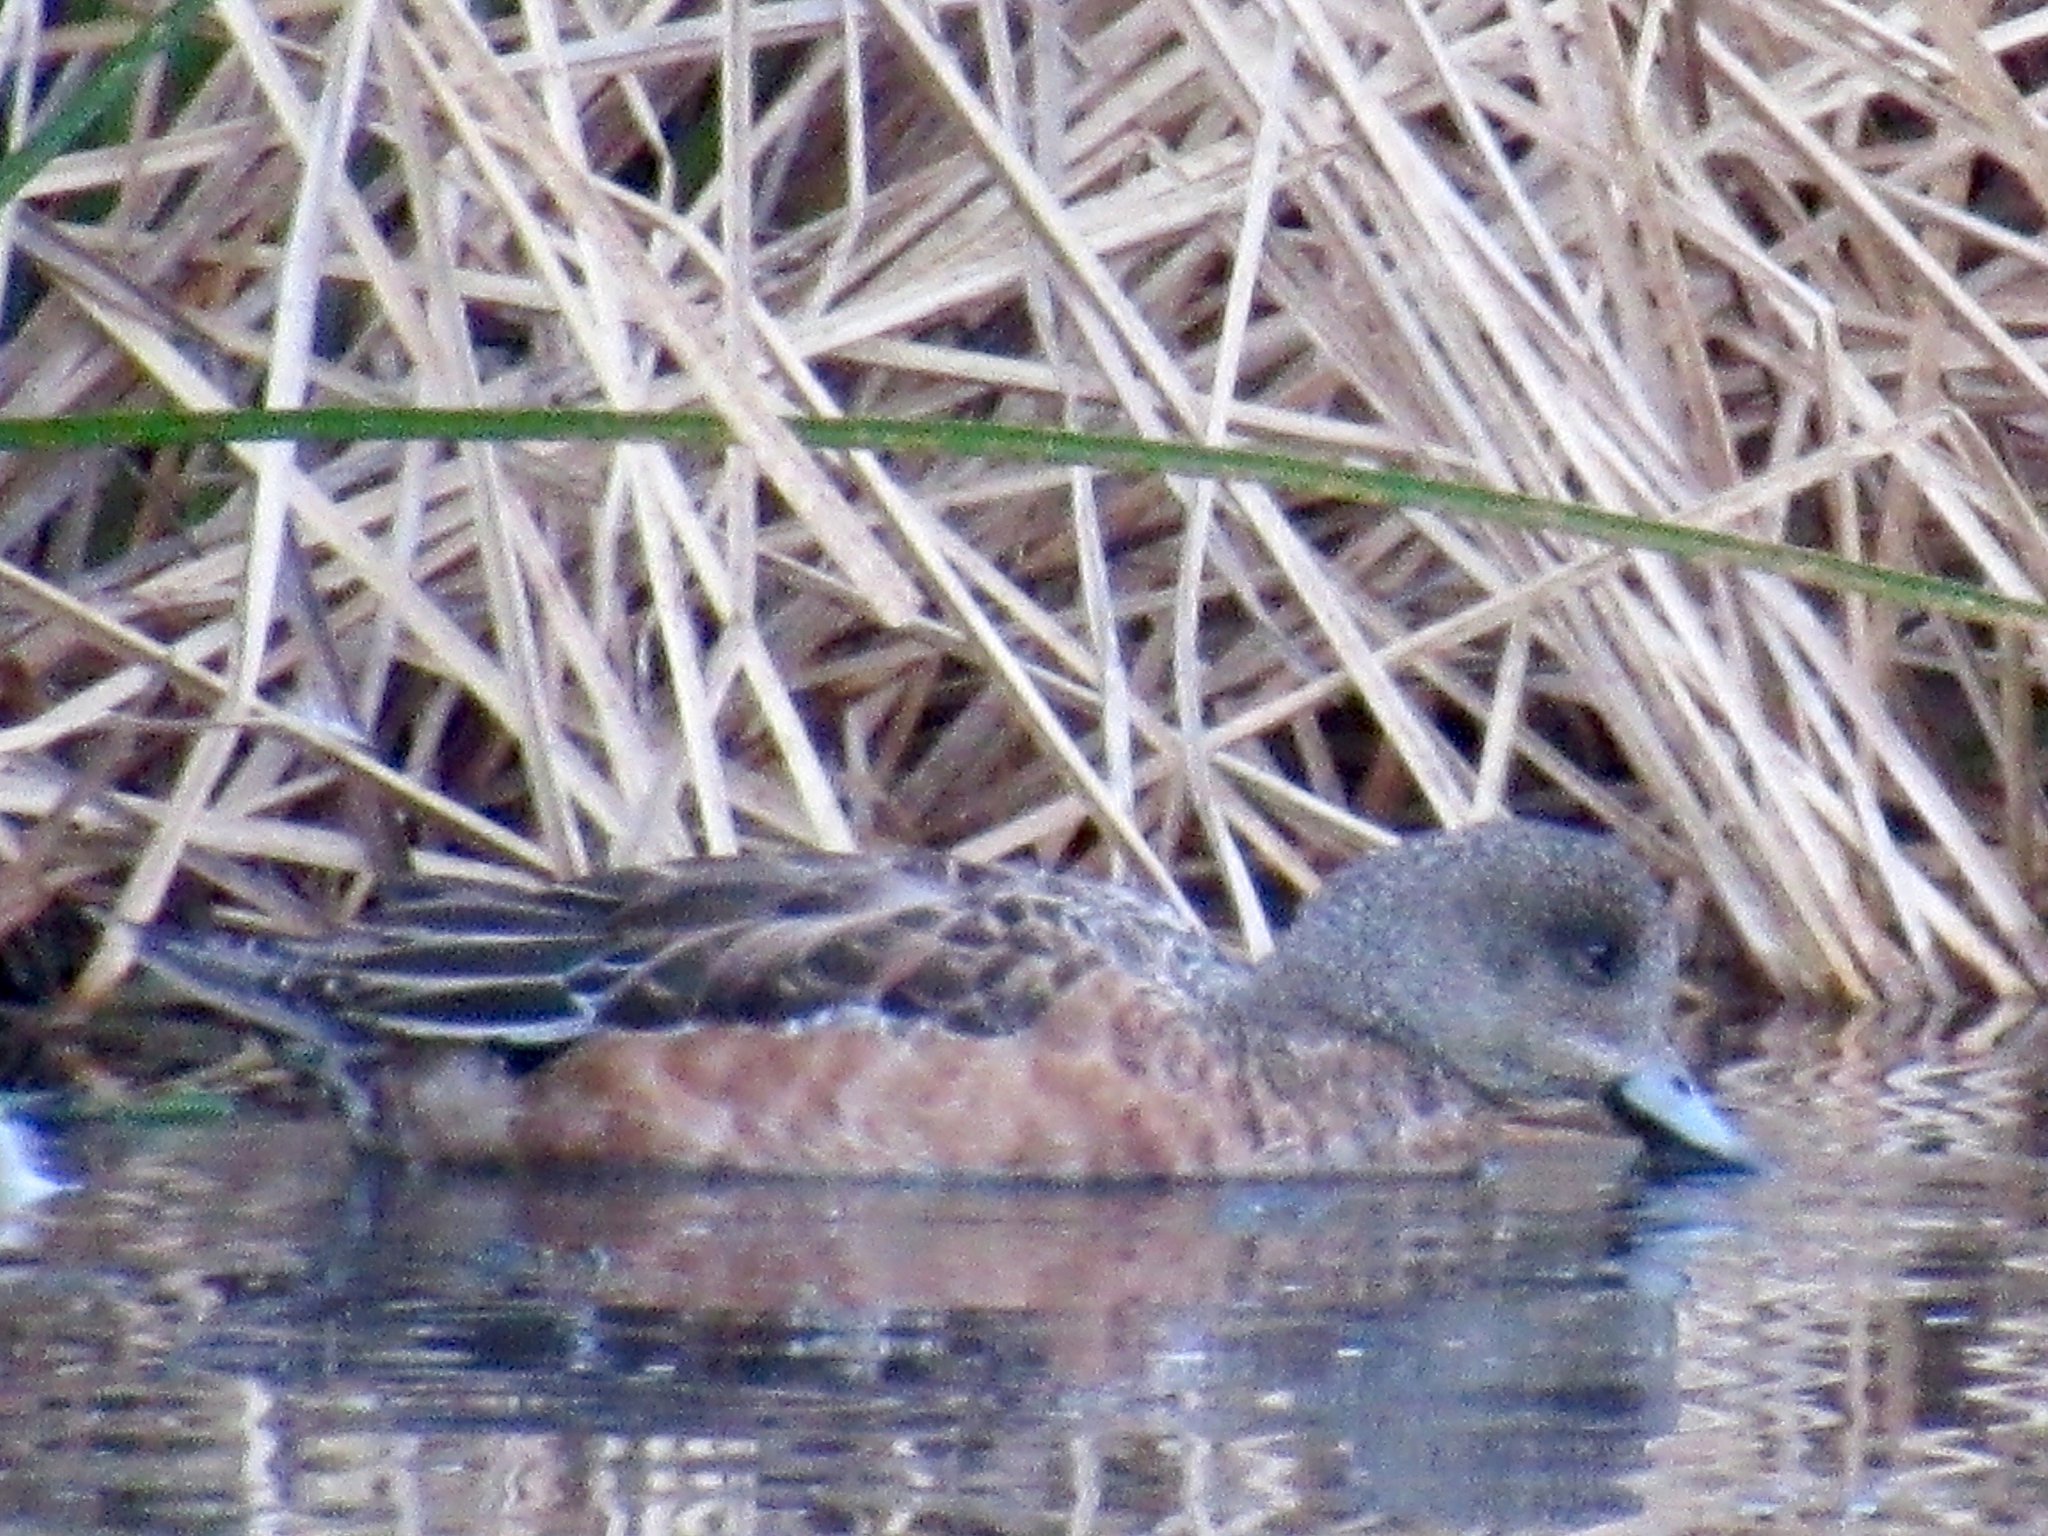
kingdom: Animalia
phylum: Chordata
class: Aves
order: Anseriformes
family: Anatidae
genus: Mareca
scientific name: Mareca americana
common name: American wigeon
